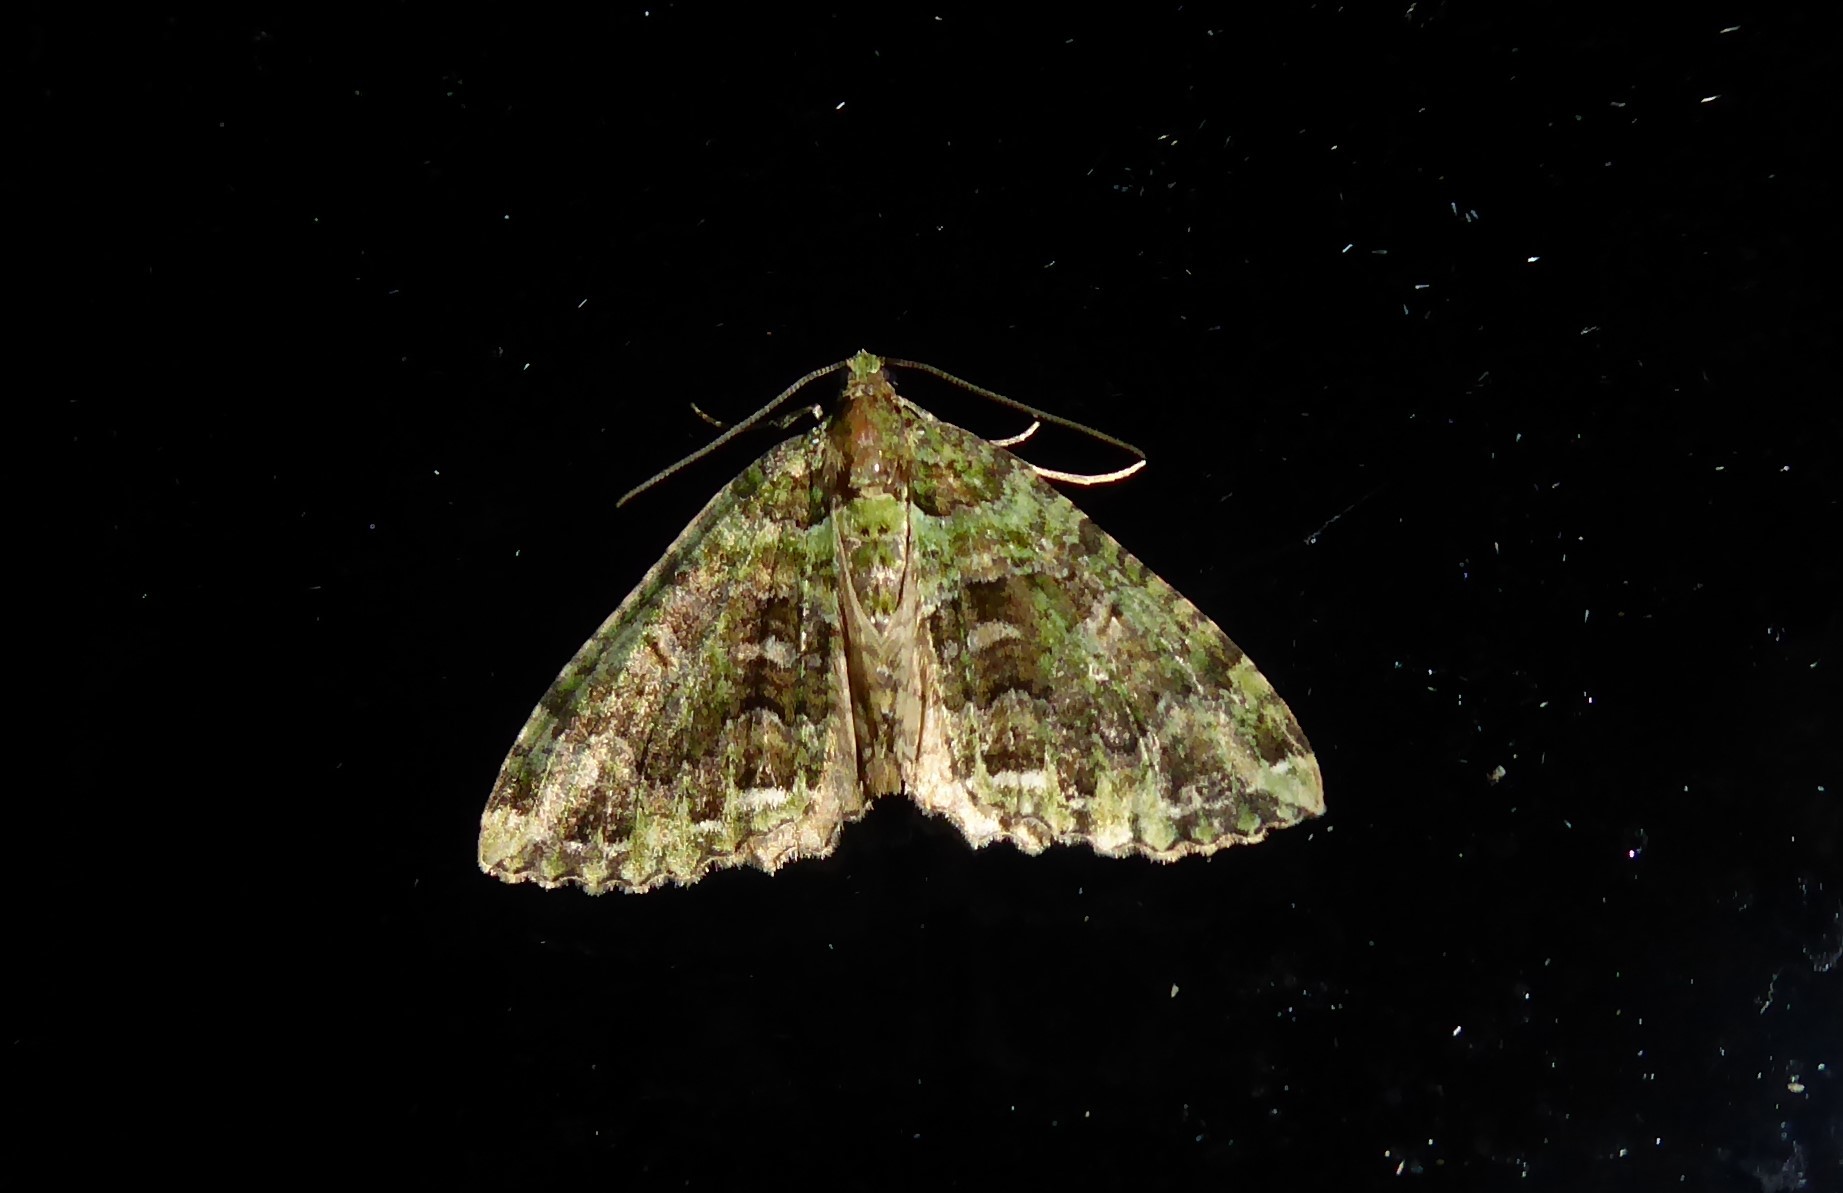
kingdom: Animalia
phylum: Arthropoda
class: Insecta
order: Lepidoptera
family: Geometridae
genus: Austrocidaria
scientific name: Austrocidaria similata
